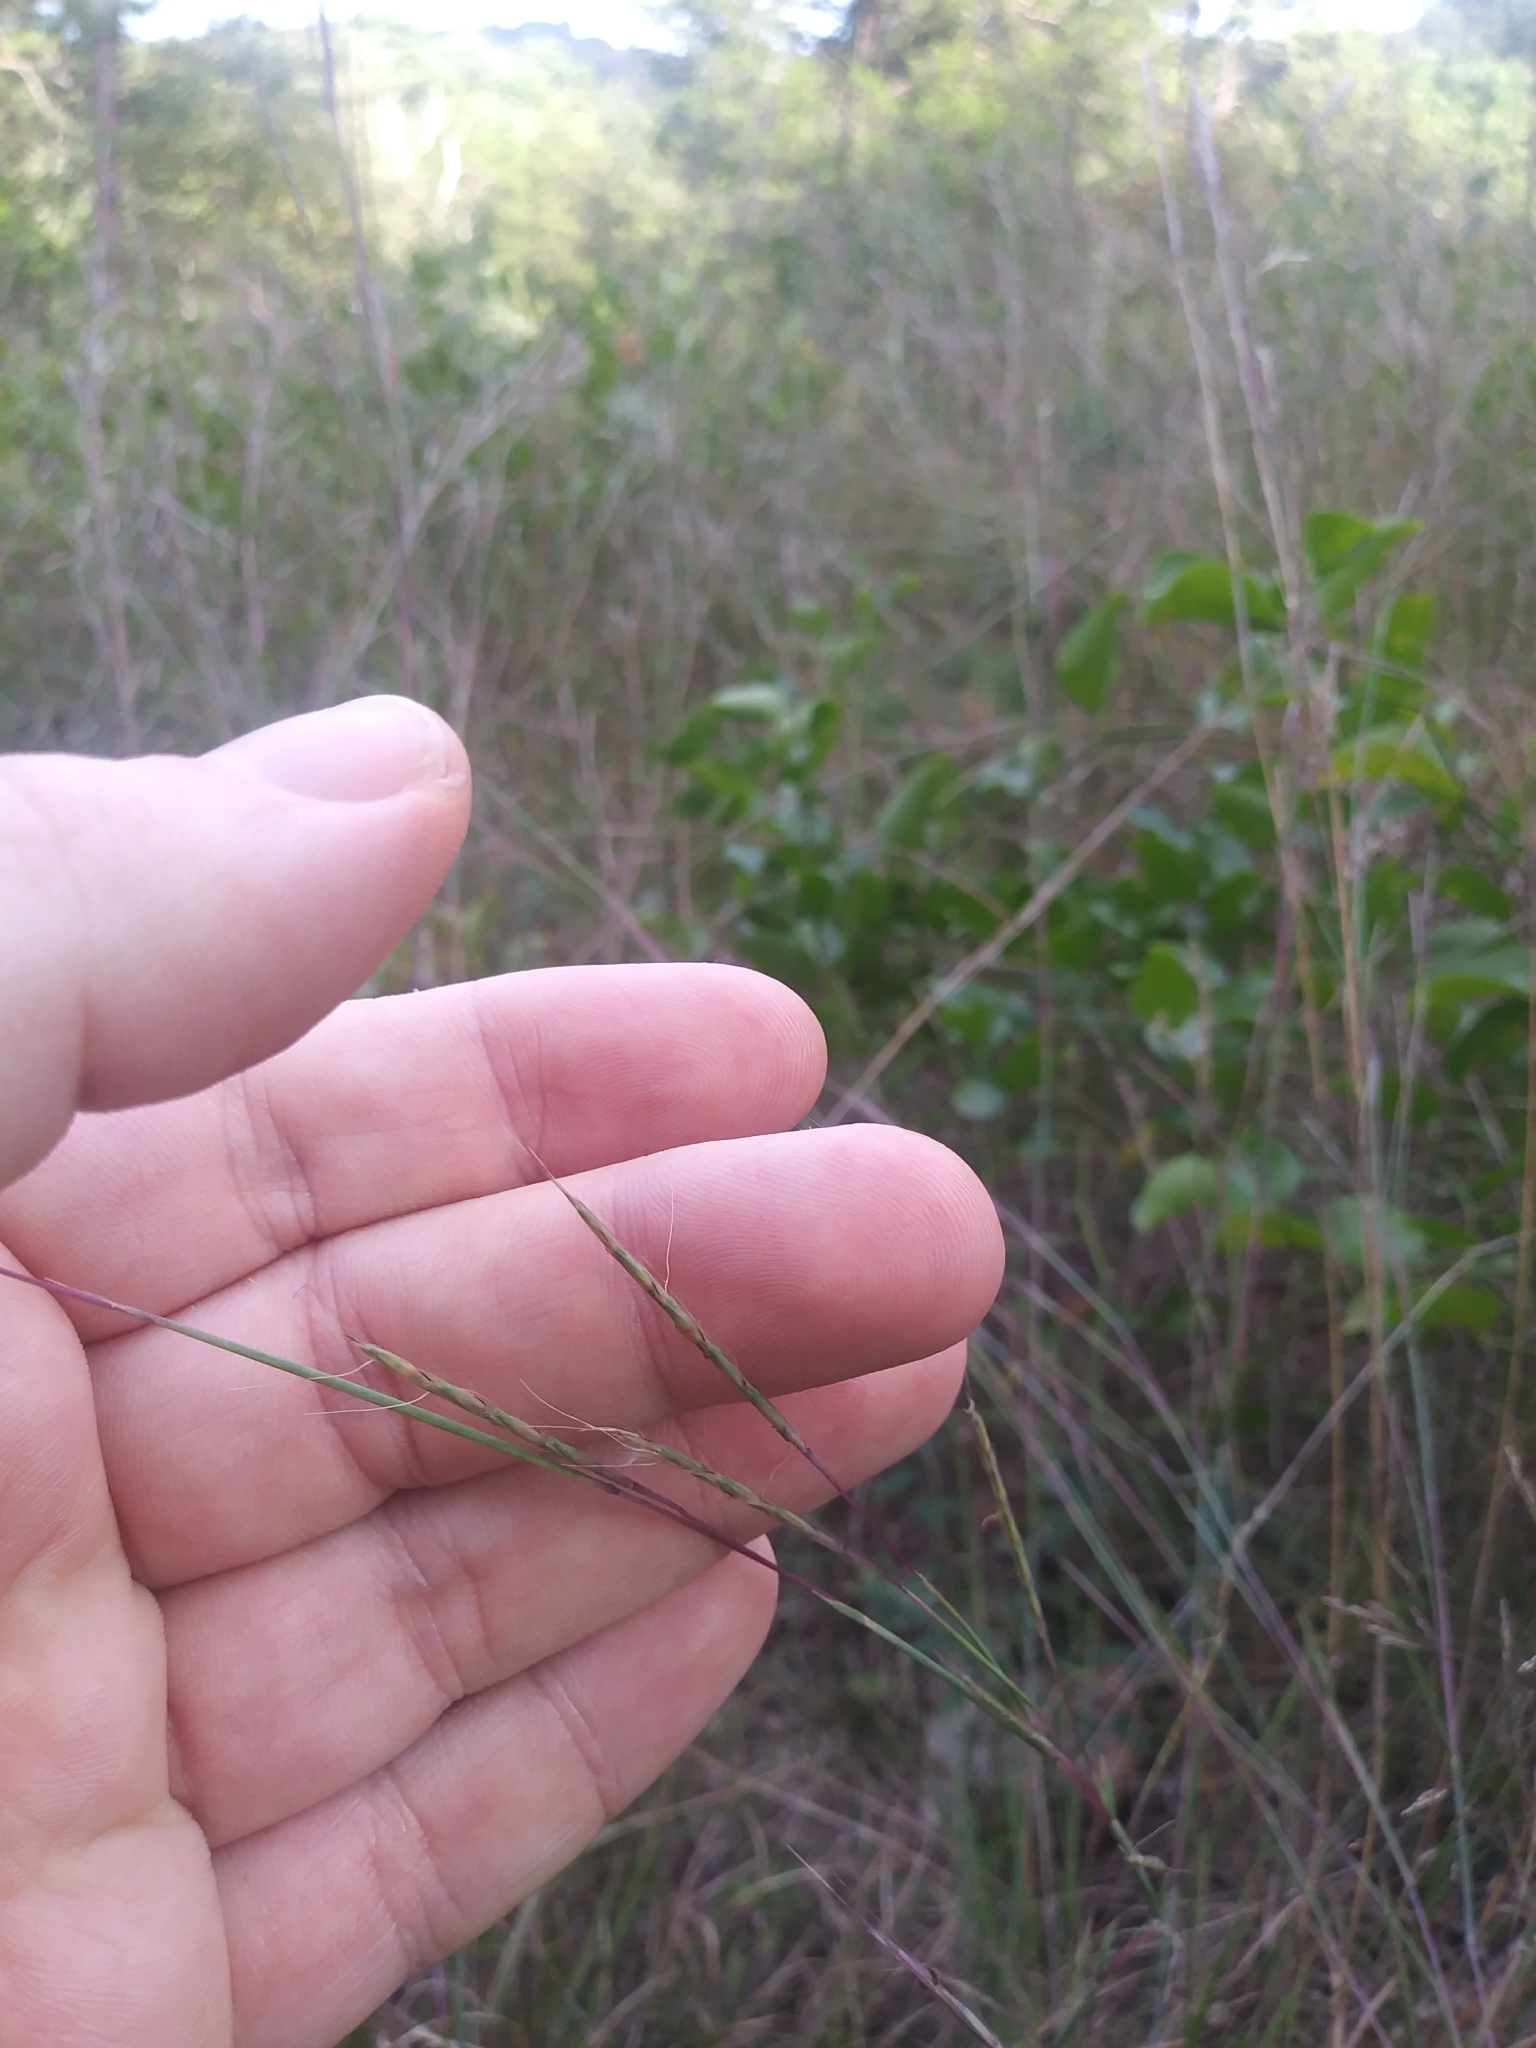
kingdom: Plantae
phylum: Tracheophyta
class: Liliopsida
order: Poales
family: Poaceae
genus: Schizachyrium
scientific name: Schizachyrium scoparium
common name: Little bluestem
